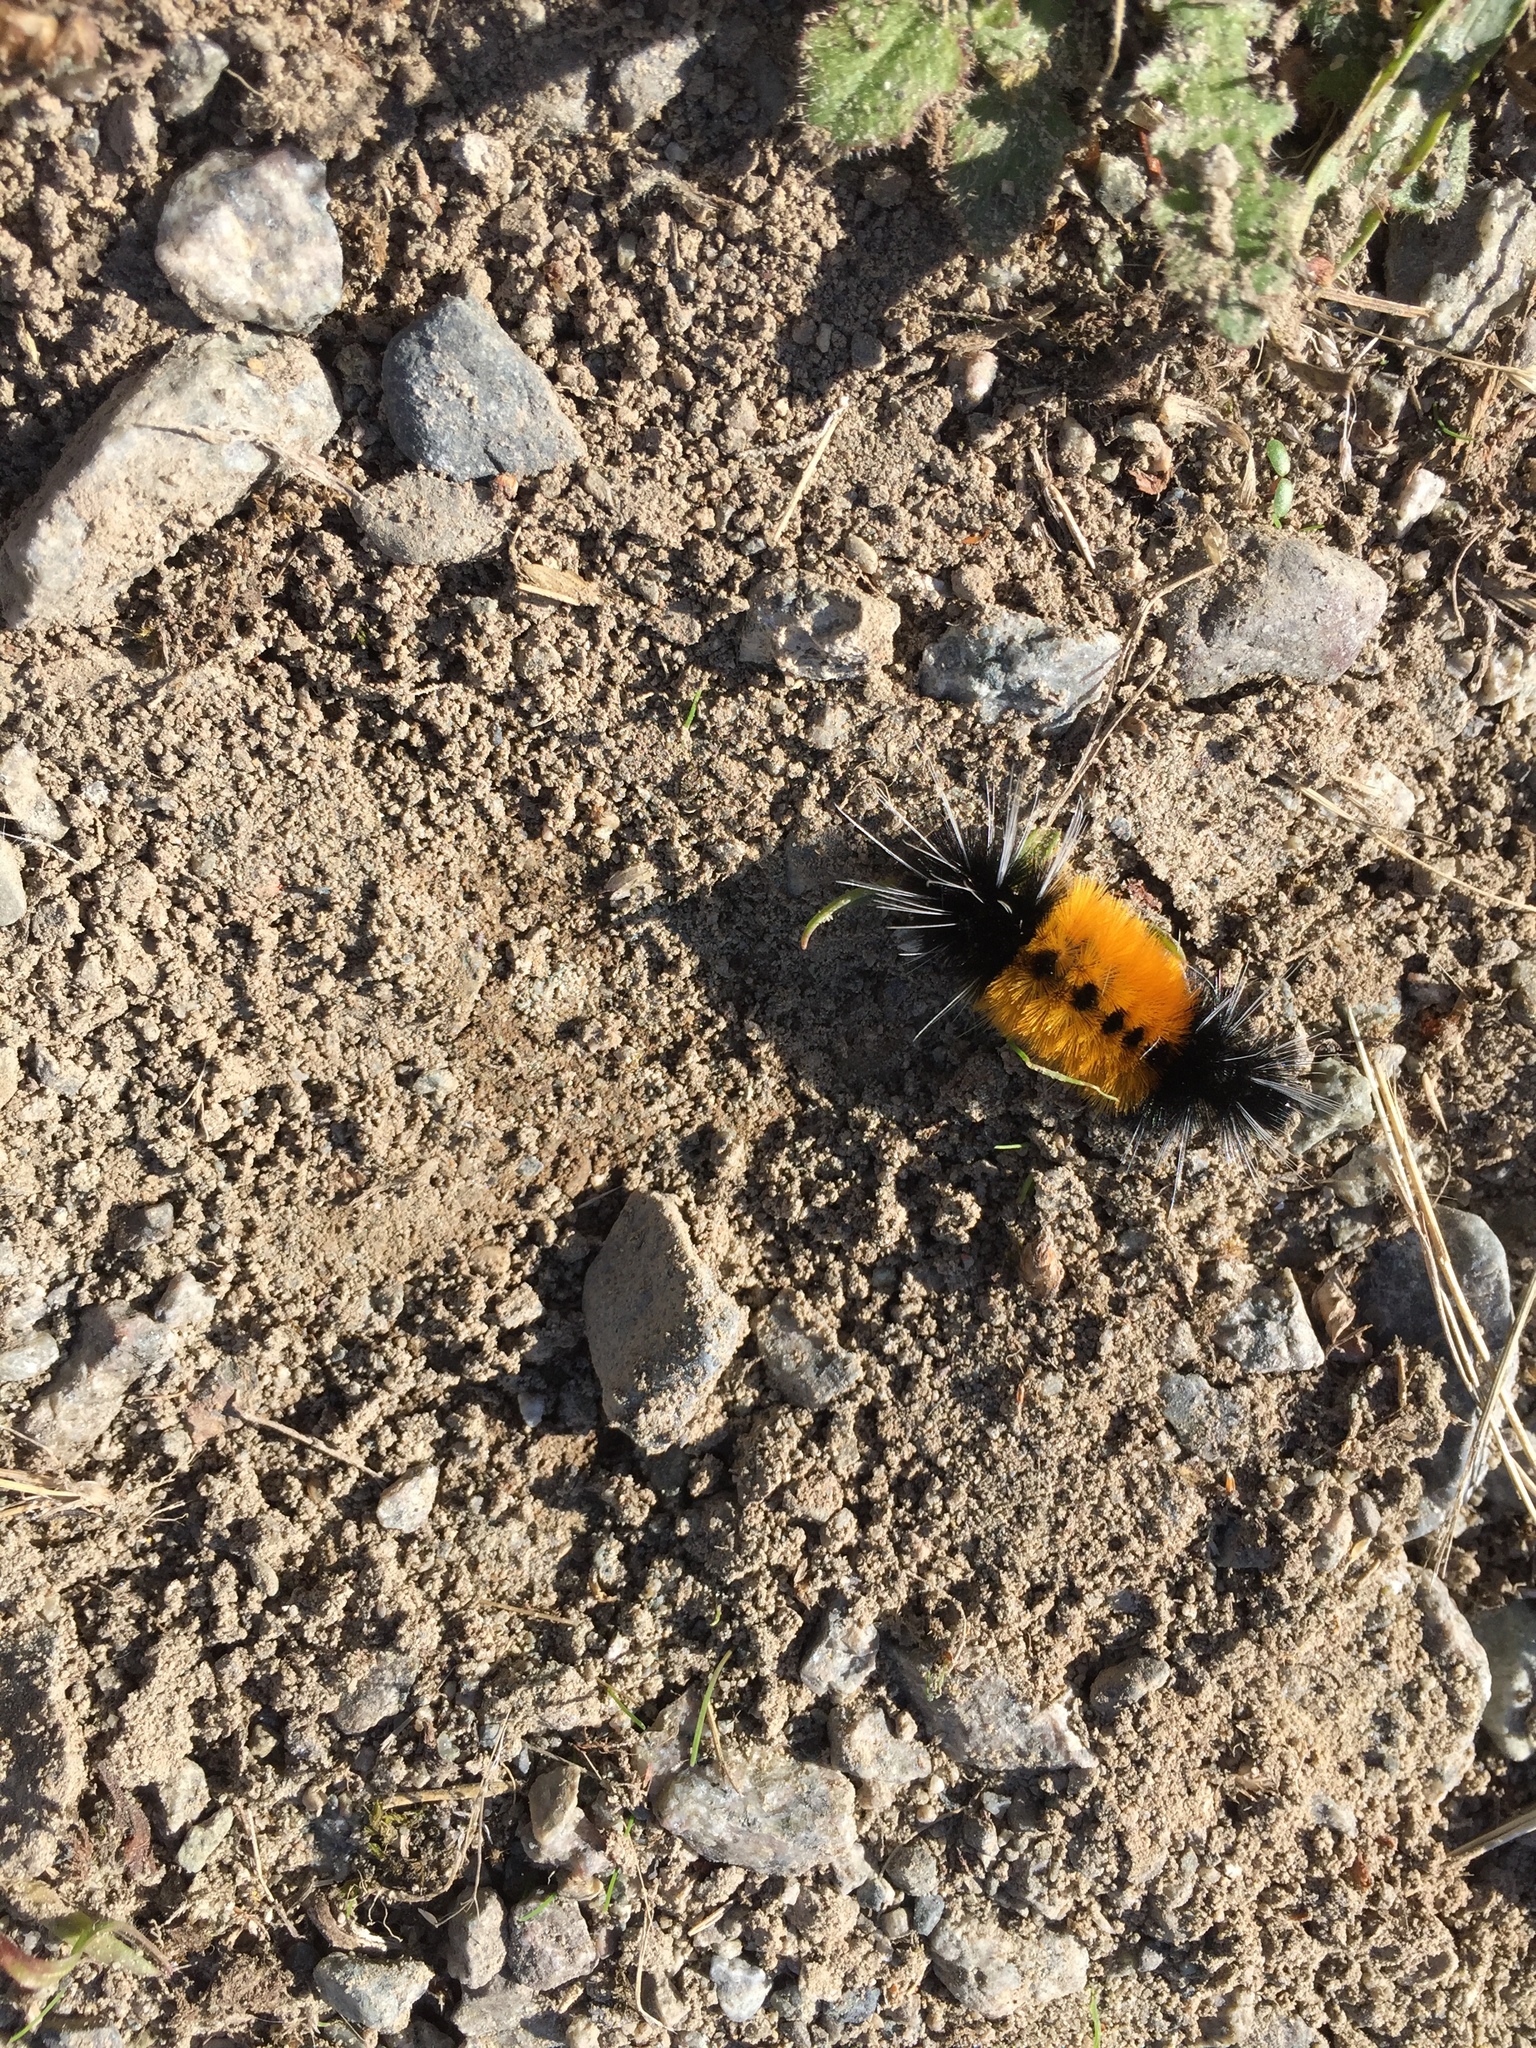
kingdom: Animalia
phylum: Arthropoda
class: Insecta
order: Lepidoptera
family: Erebidae
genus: Lophocampa
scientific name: Lophocampa maculata
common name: Spotted tussock moth
